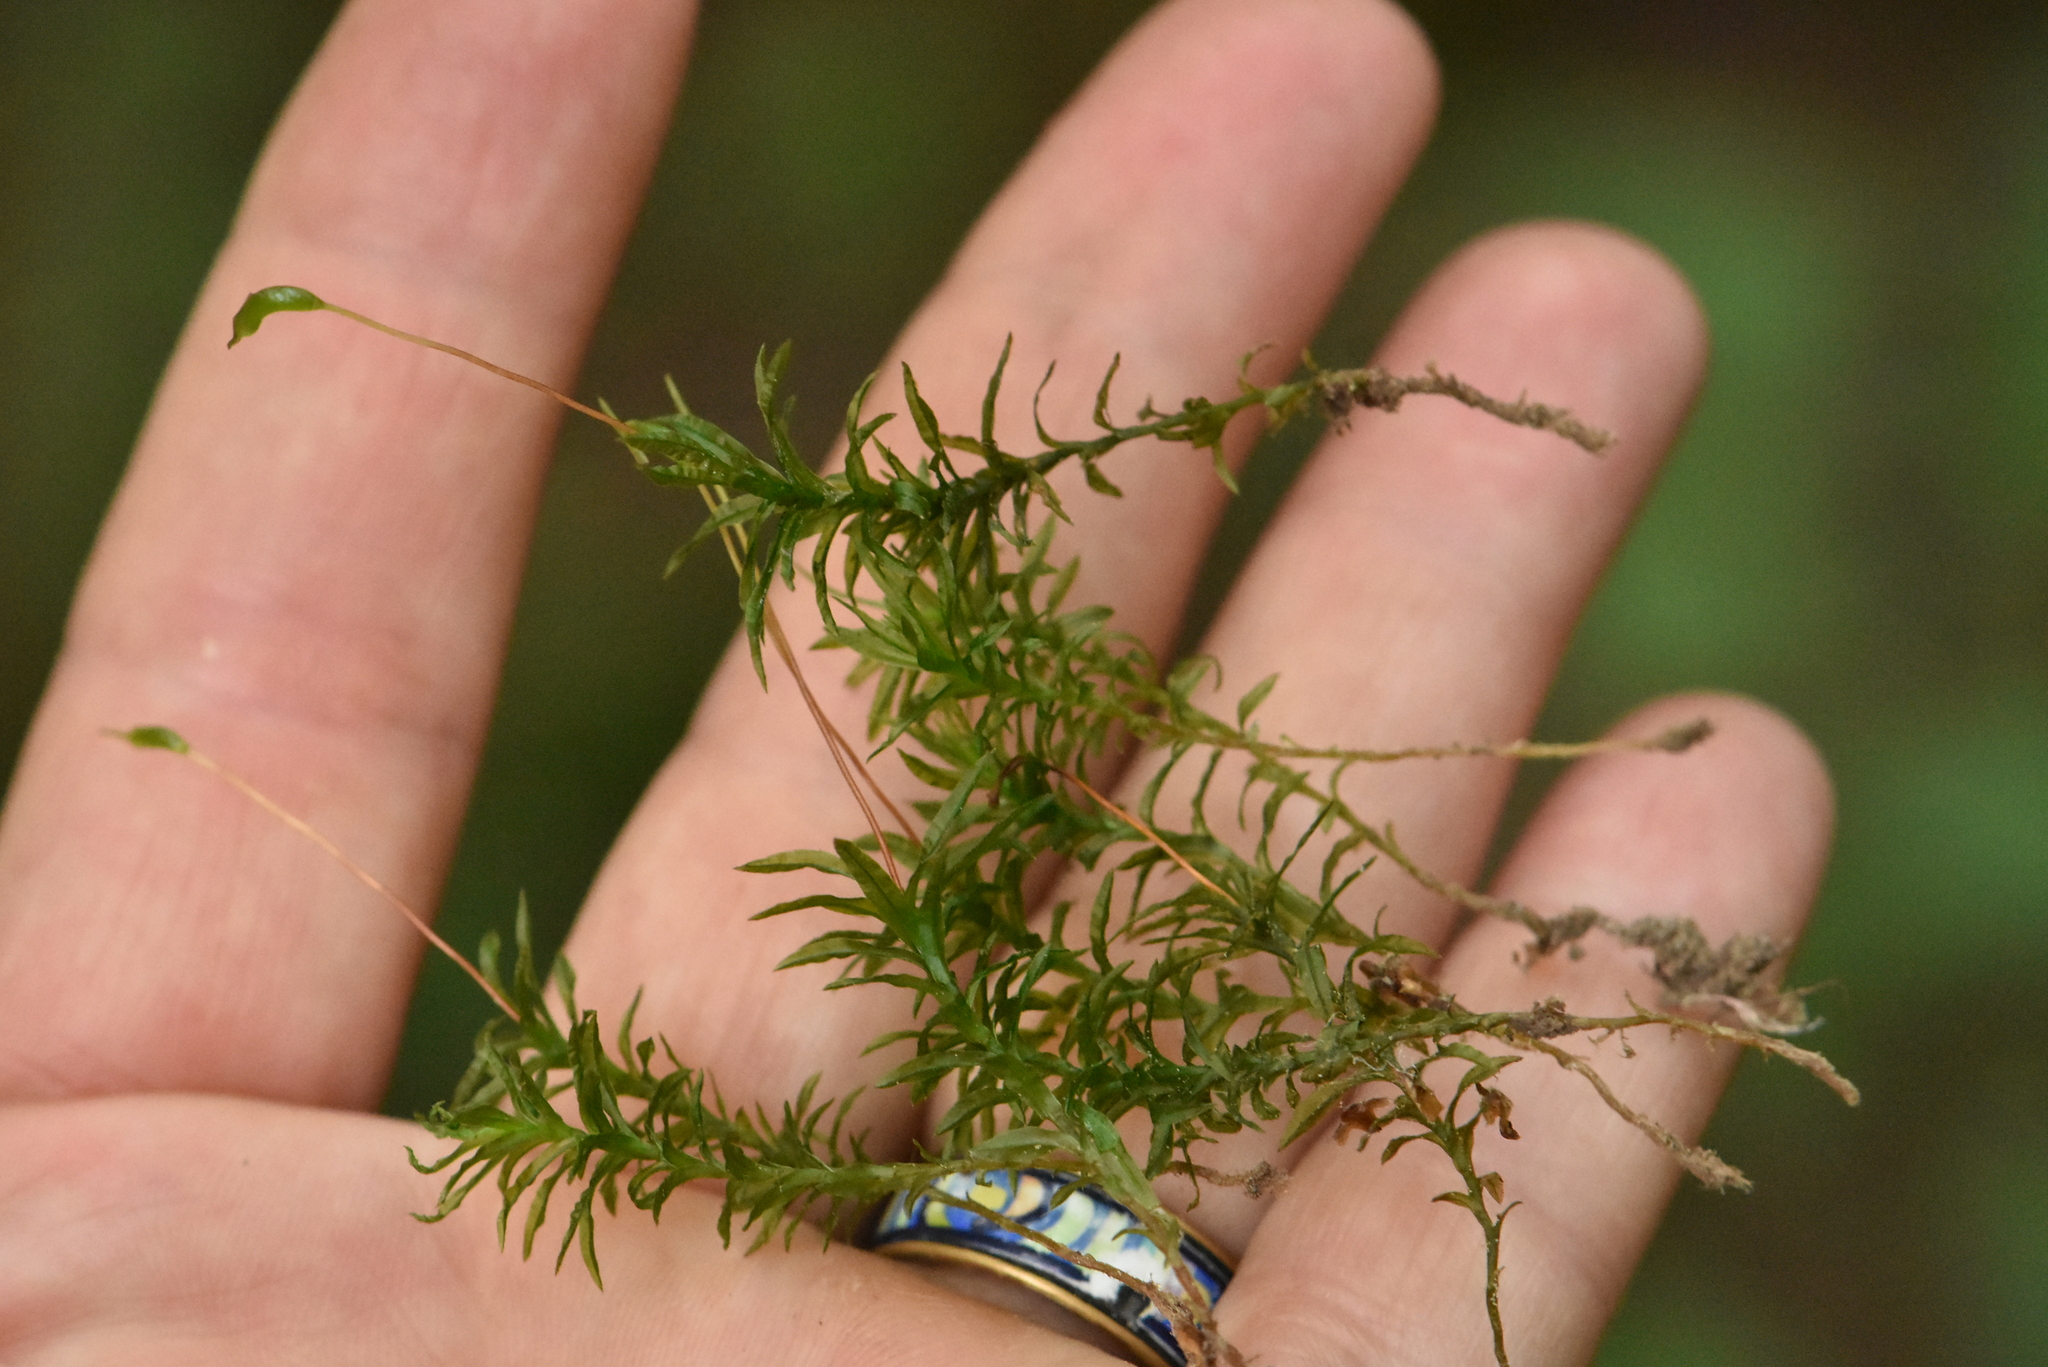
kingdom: Plantae
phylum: Bryophyta
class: Polytrichopsida
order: Polytrichales
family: Polytrichaceae
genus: Atrichum
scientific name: Atrichum undulatum
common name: Common smoothcap
